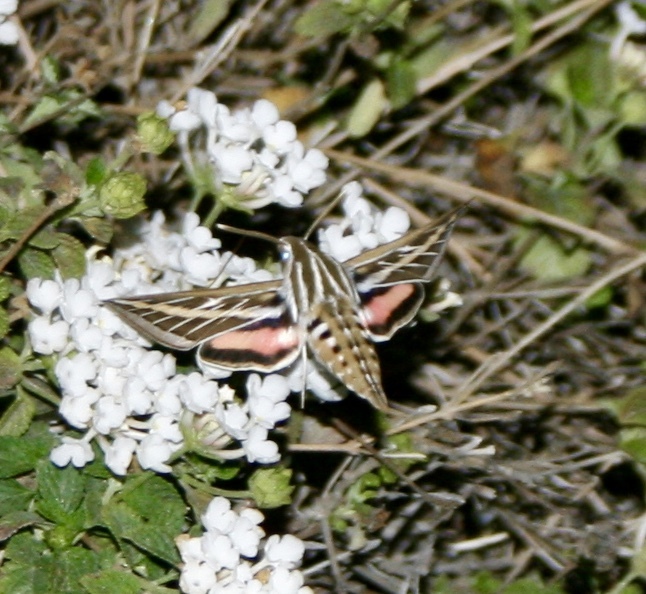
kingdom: Animalia
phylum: Arthropoda
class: Insecta
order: Lepidoptera
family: Sphingidae
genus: Hyles
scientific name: Hyles lineata
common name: White-lined sphinx
